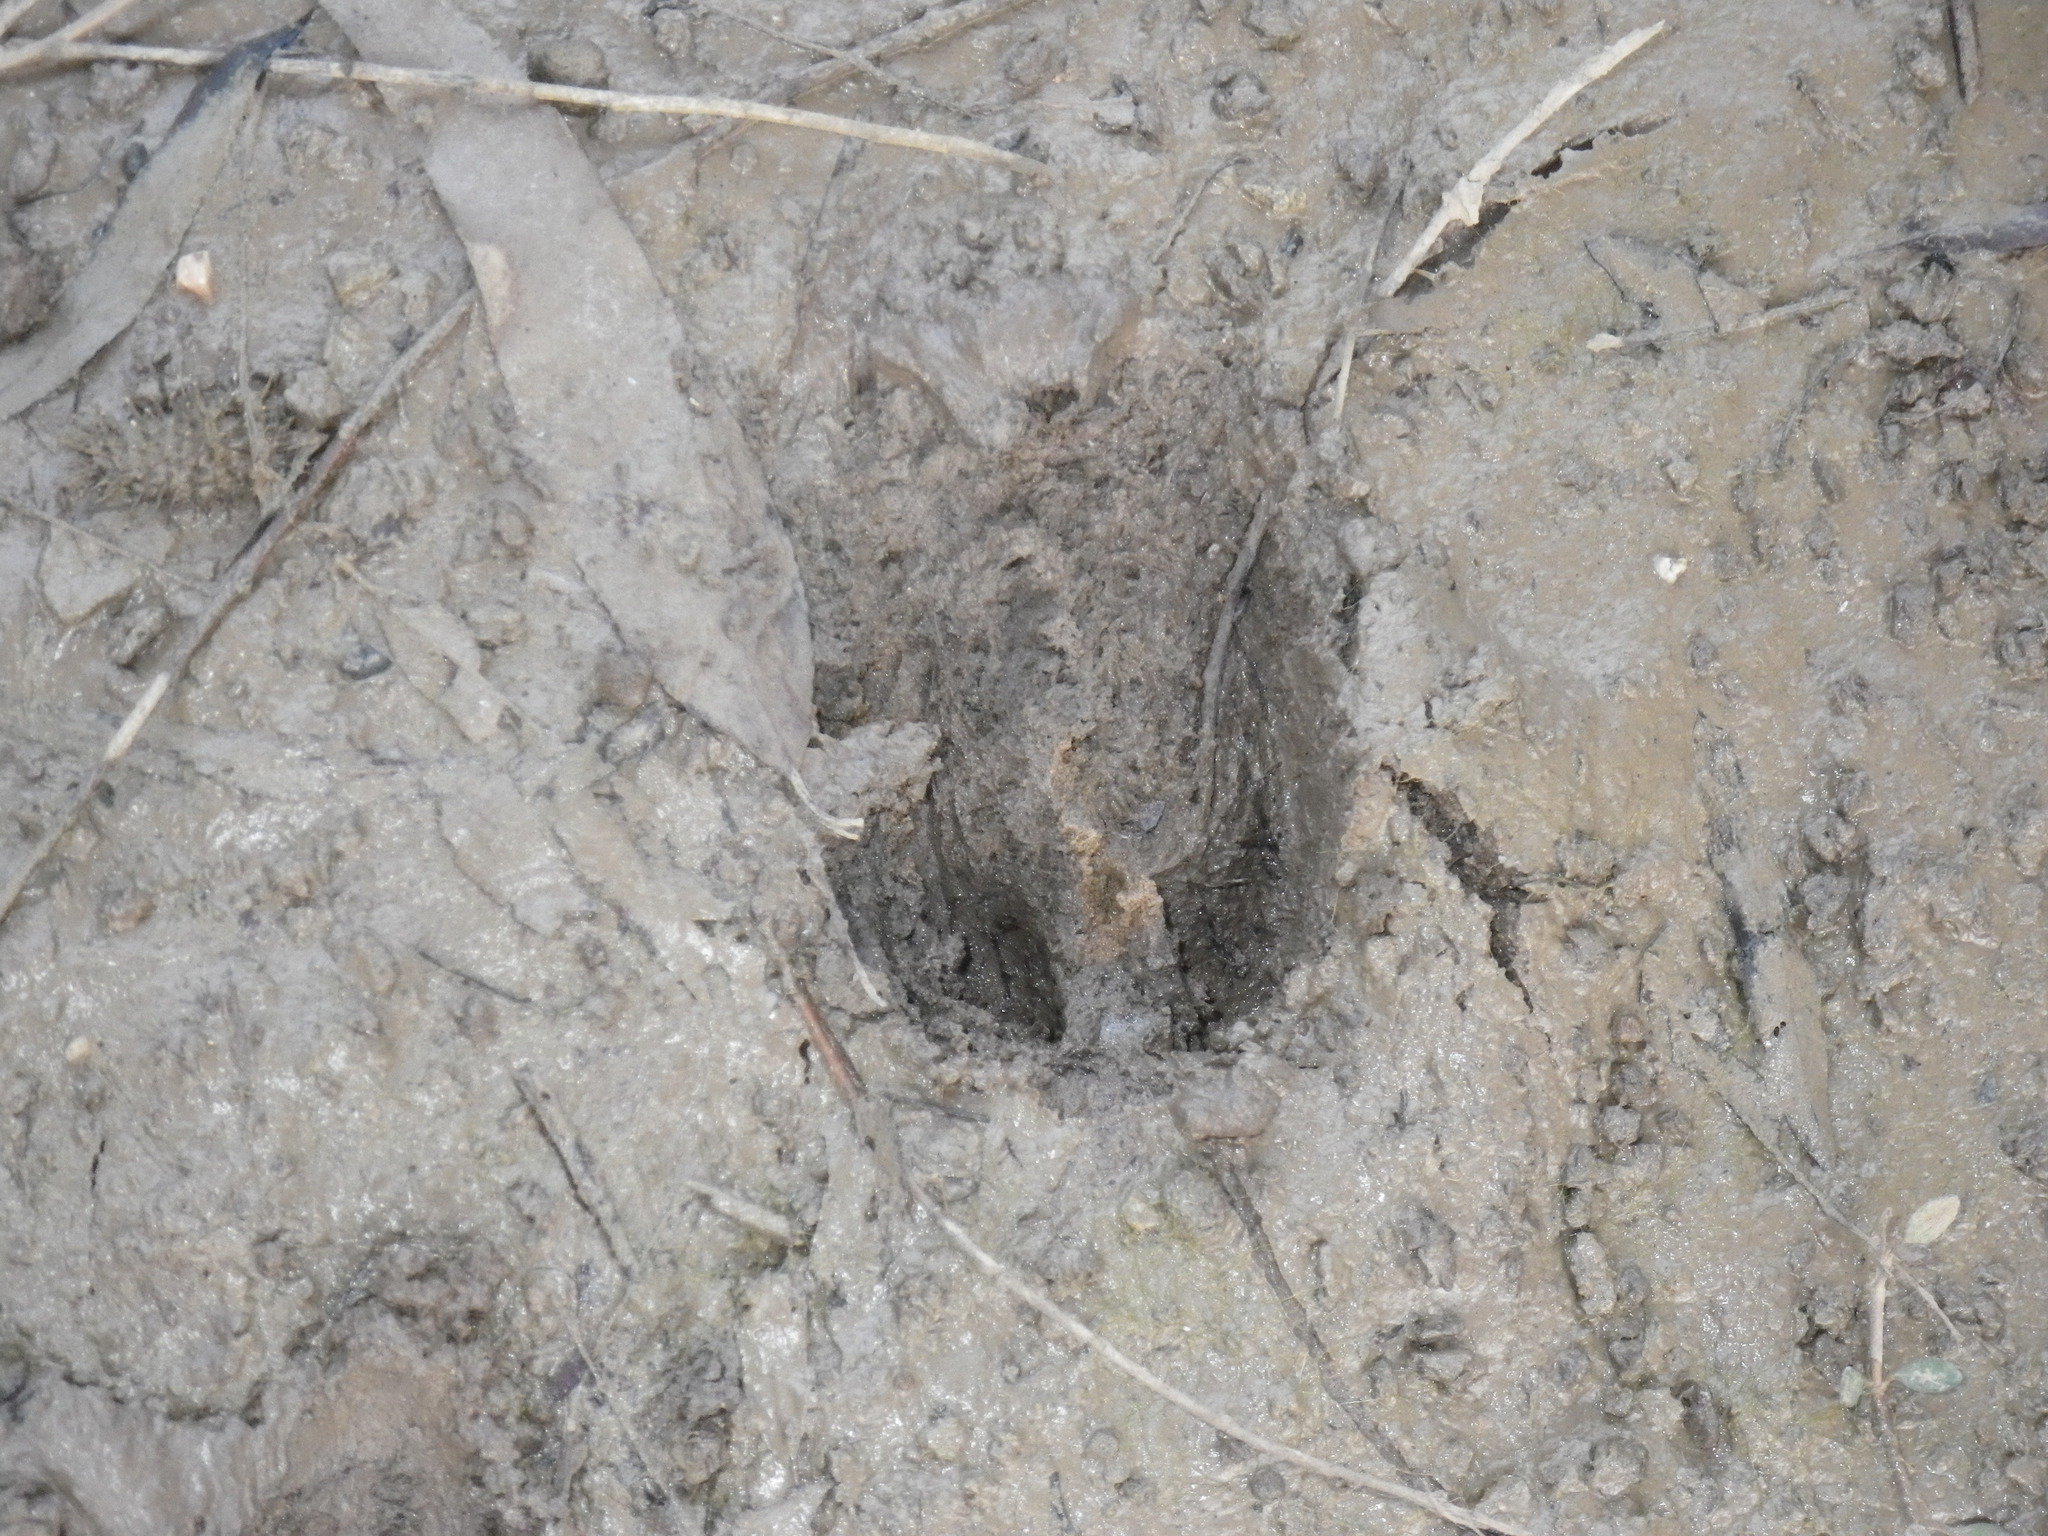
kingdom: Animalia
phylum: Chordata
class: Mammalia
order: Artiodactyla
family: Cervidae
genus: Odocoileus
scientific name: Odocoileus hemionus
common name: Mule deer
